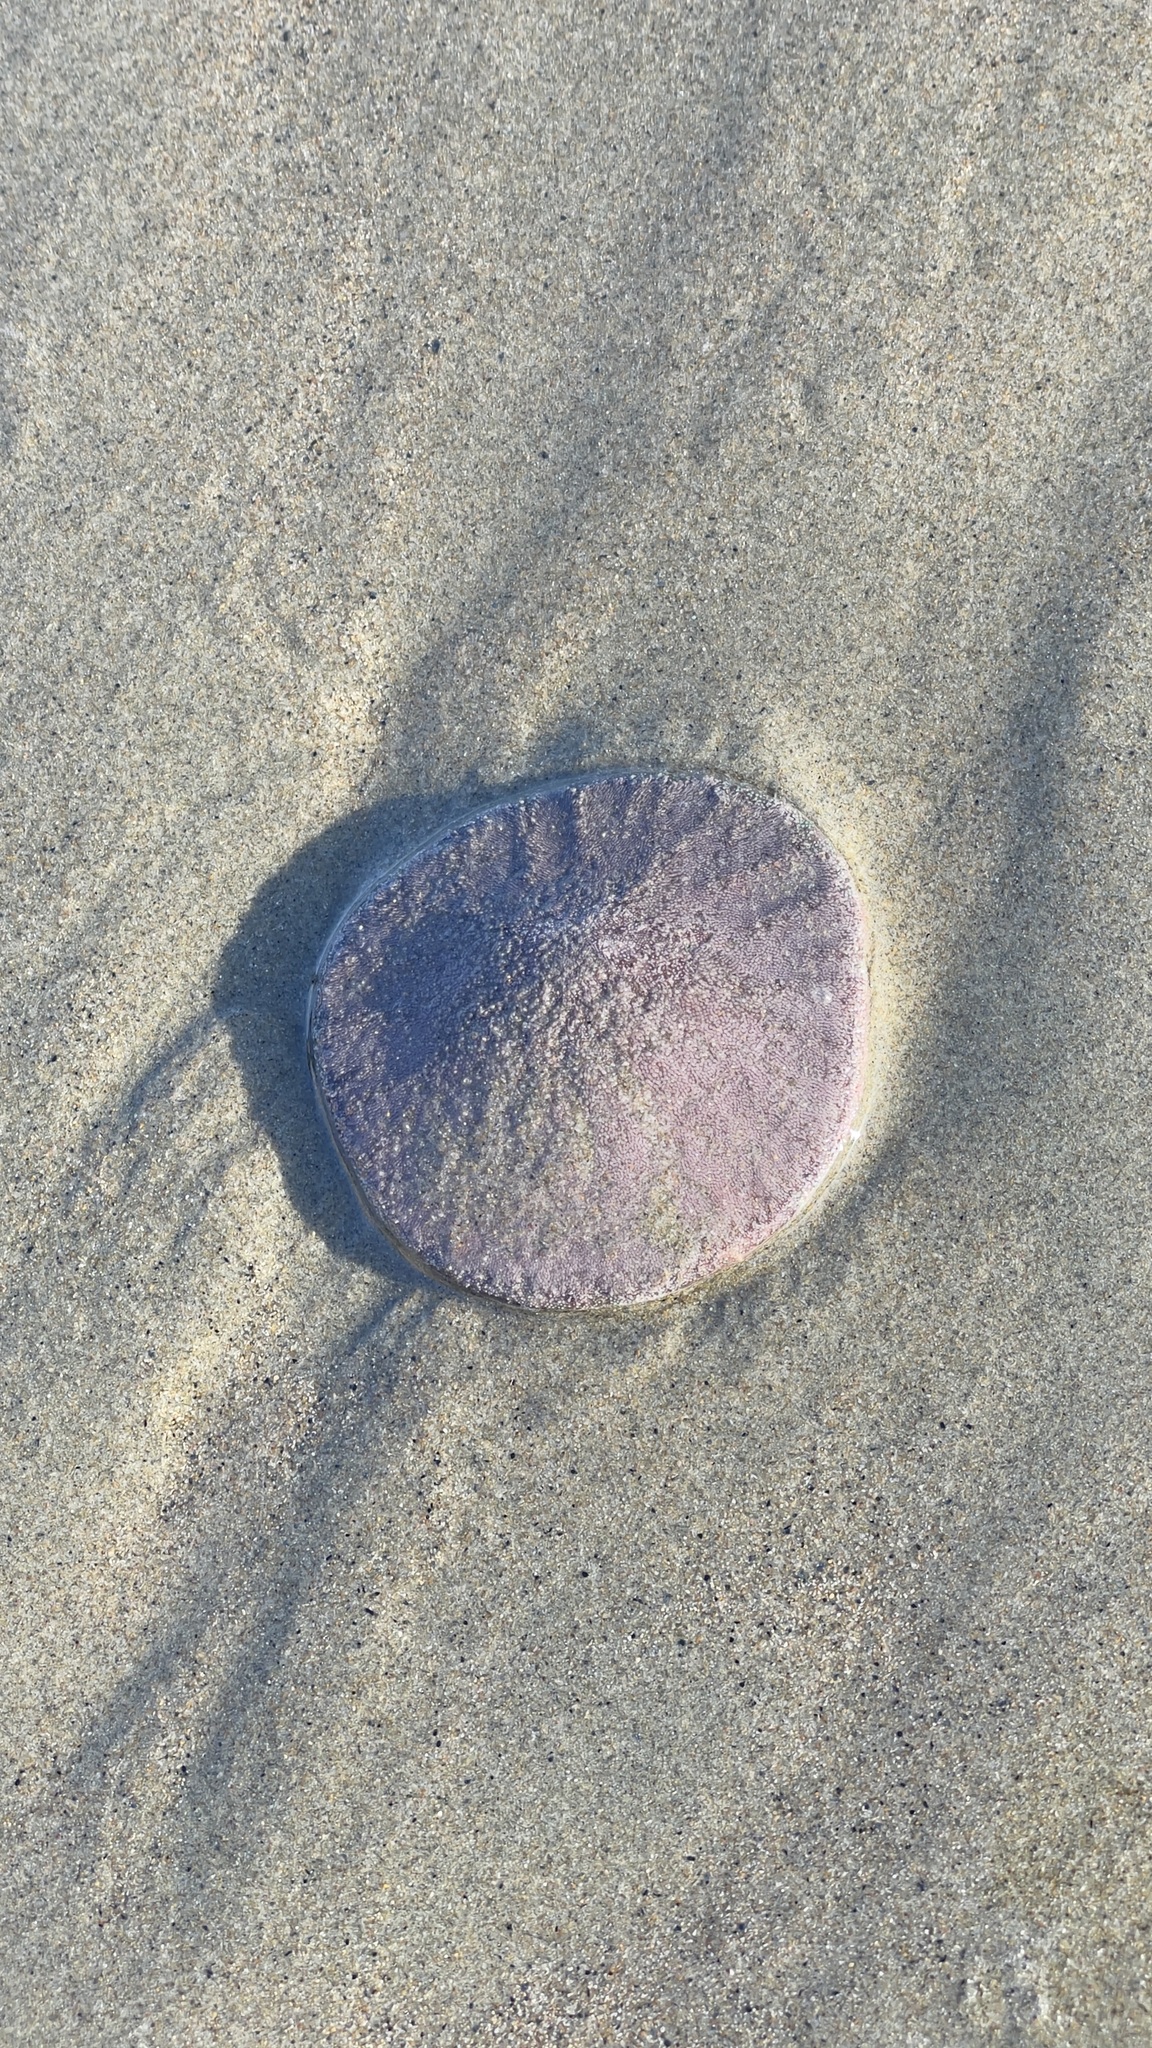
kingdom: Animalia
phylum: Echinodermata
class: Echinoidea
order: Echinolampadacea
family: Dendrasteridae
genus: Dendraster
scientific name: Dendraster excentricus
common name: Eccentric sand dollar sea urchin
